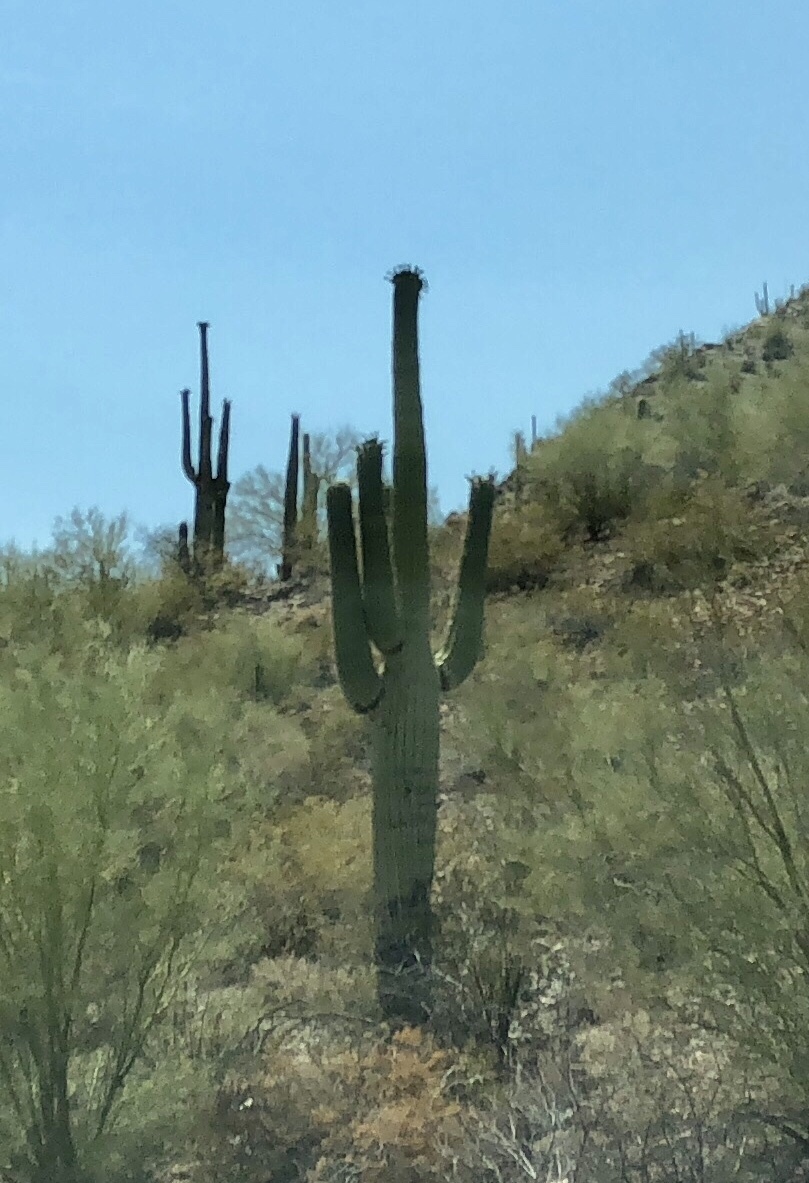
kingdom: Plantae
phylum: Tracheophyta
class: Magnoliopsida
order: Caryophyllales
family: Cactaceae
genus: Carnegiea
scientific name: Carnegiea gigantea
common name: Saguaro
